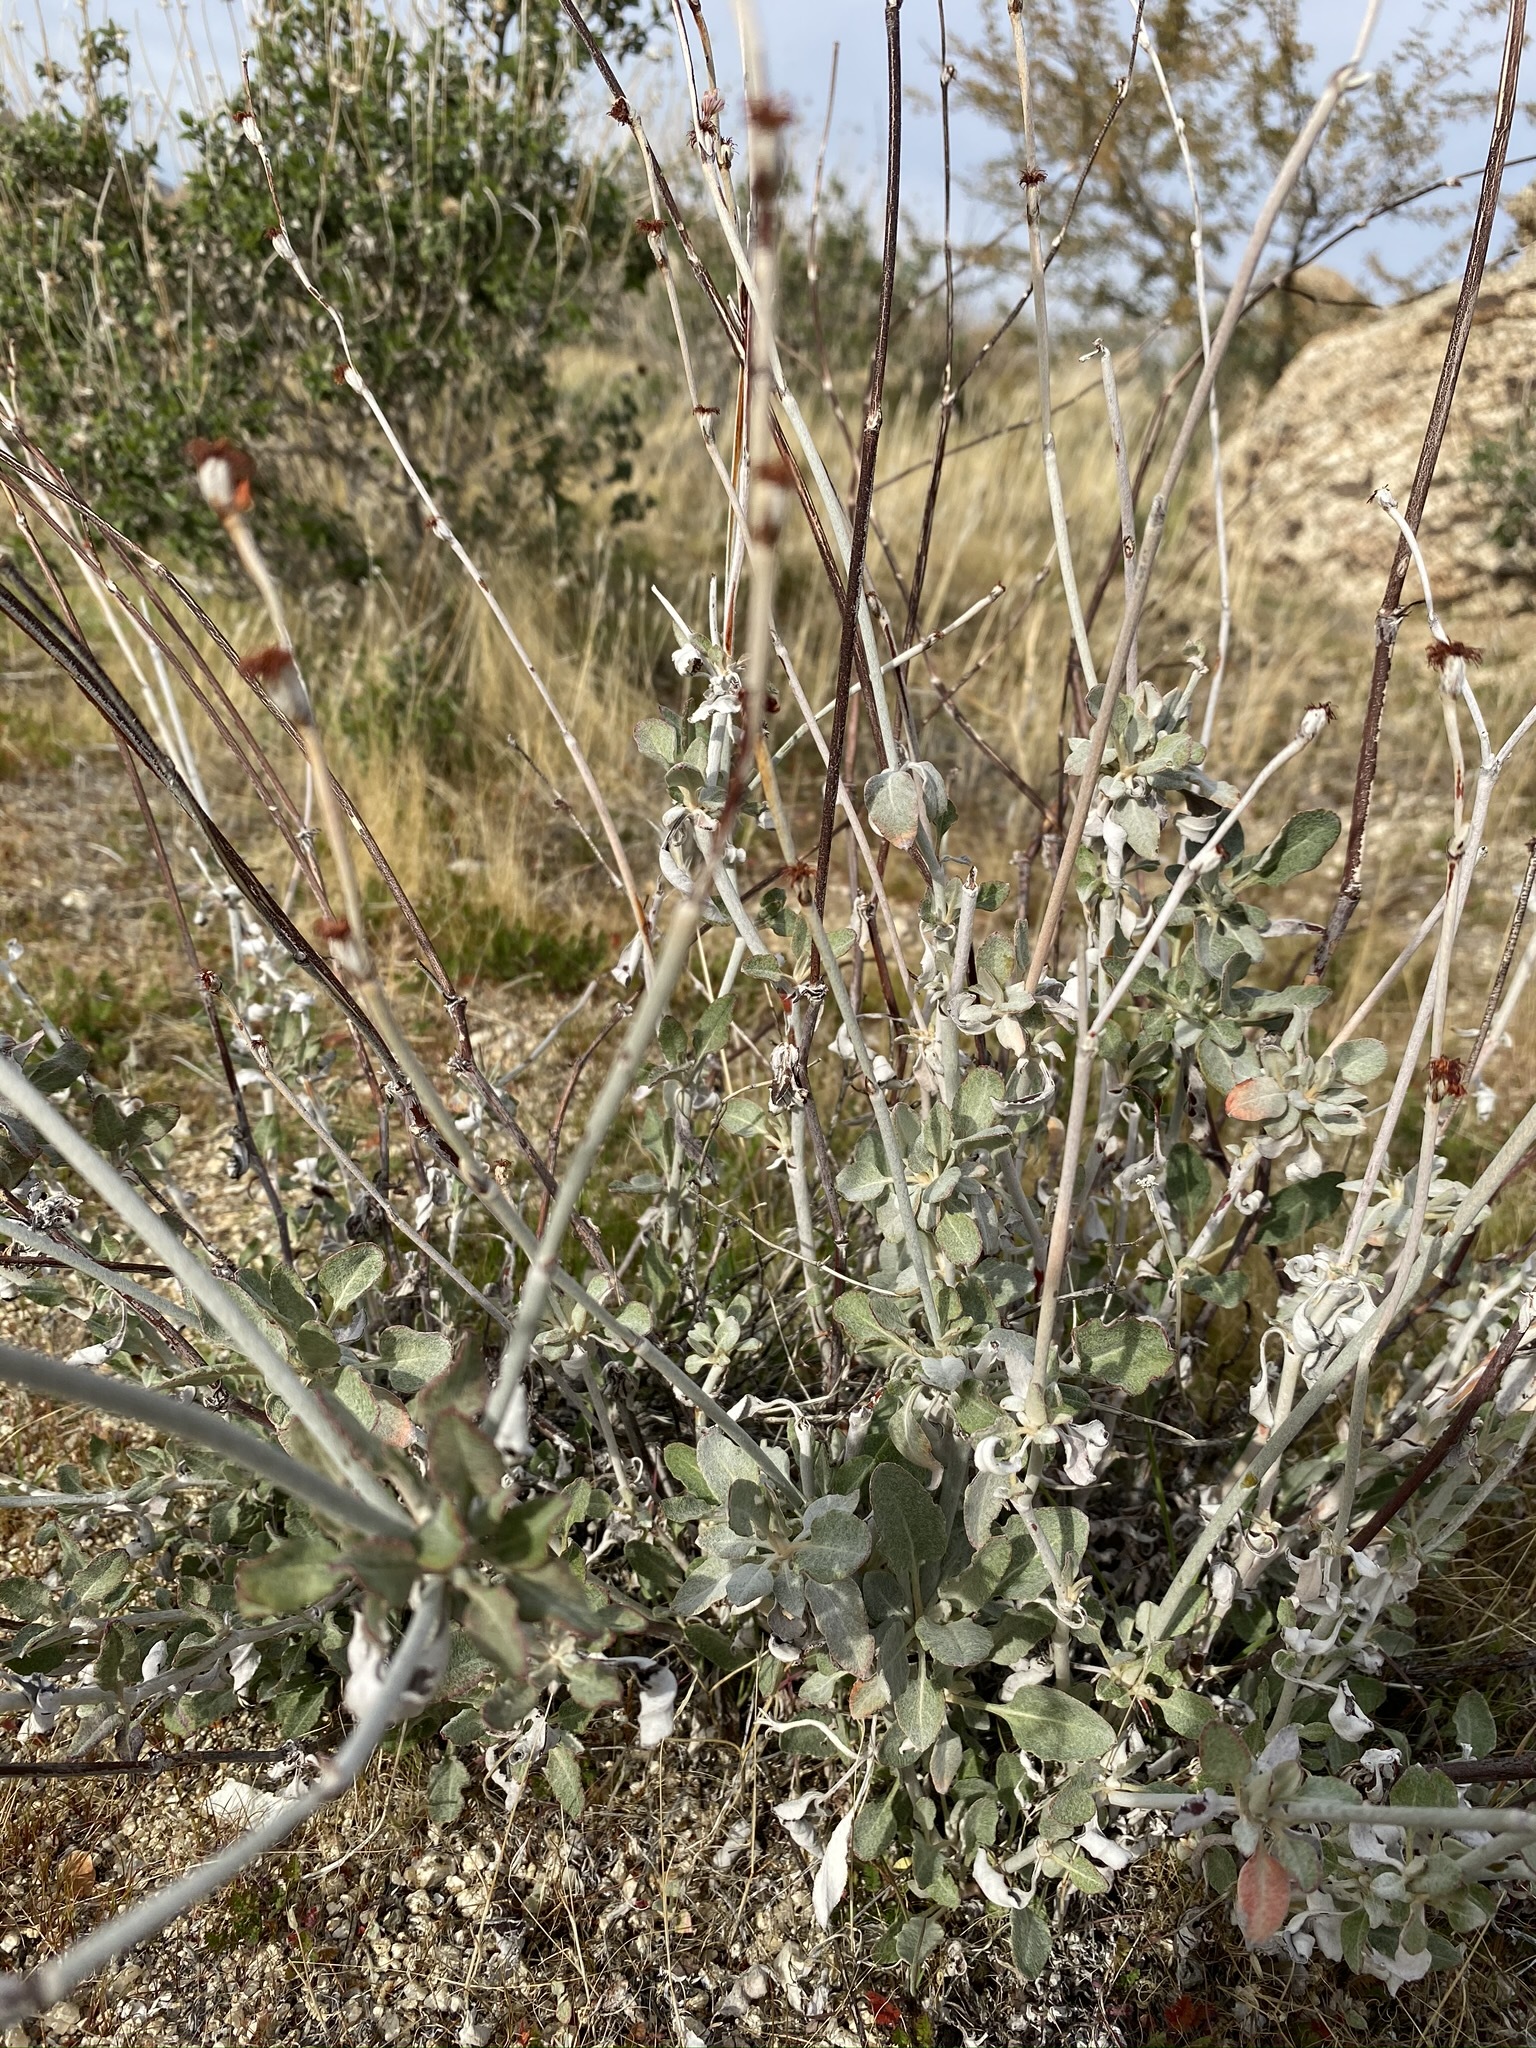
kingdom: Plantae
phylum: Tracheophyta
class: Magnoliopsida
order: Caryophyllales
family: Polygonaceae
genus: Eriogonum
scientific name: Eriogonum elongatum
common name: Long-stem wild buckwheat
